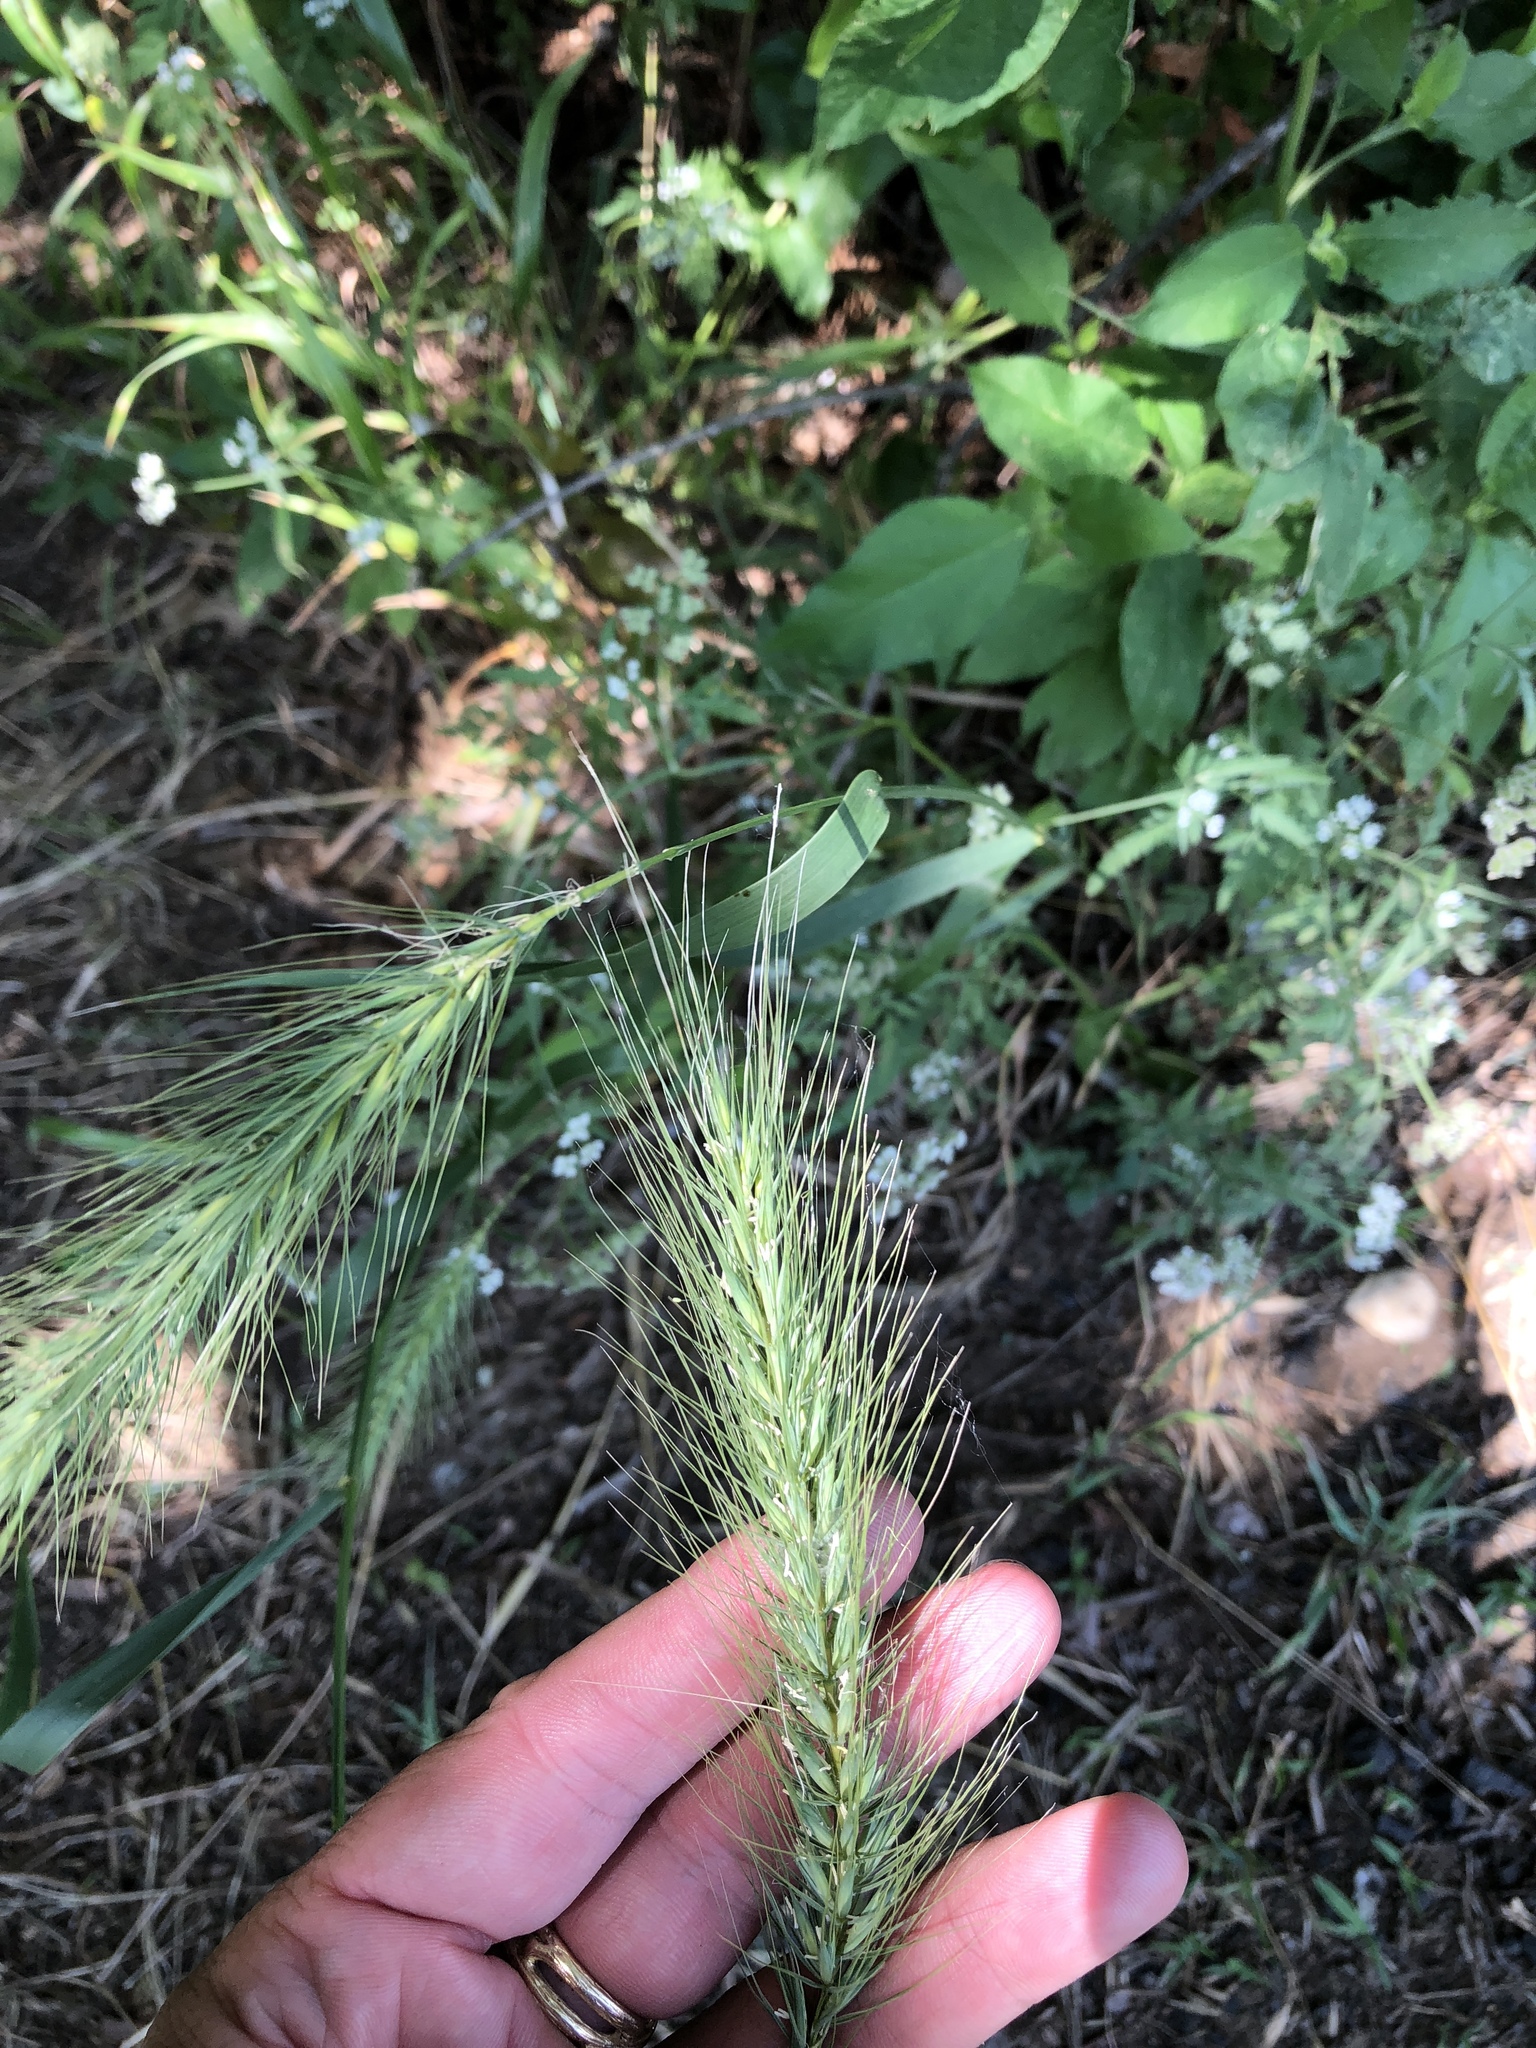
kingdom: Plantae
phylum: Tracheophyta
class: Liliopsida
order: Poales
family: Poaceae
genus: Elymus
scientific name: Elymus canadensis
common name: Canada wild rye
